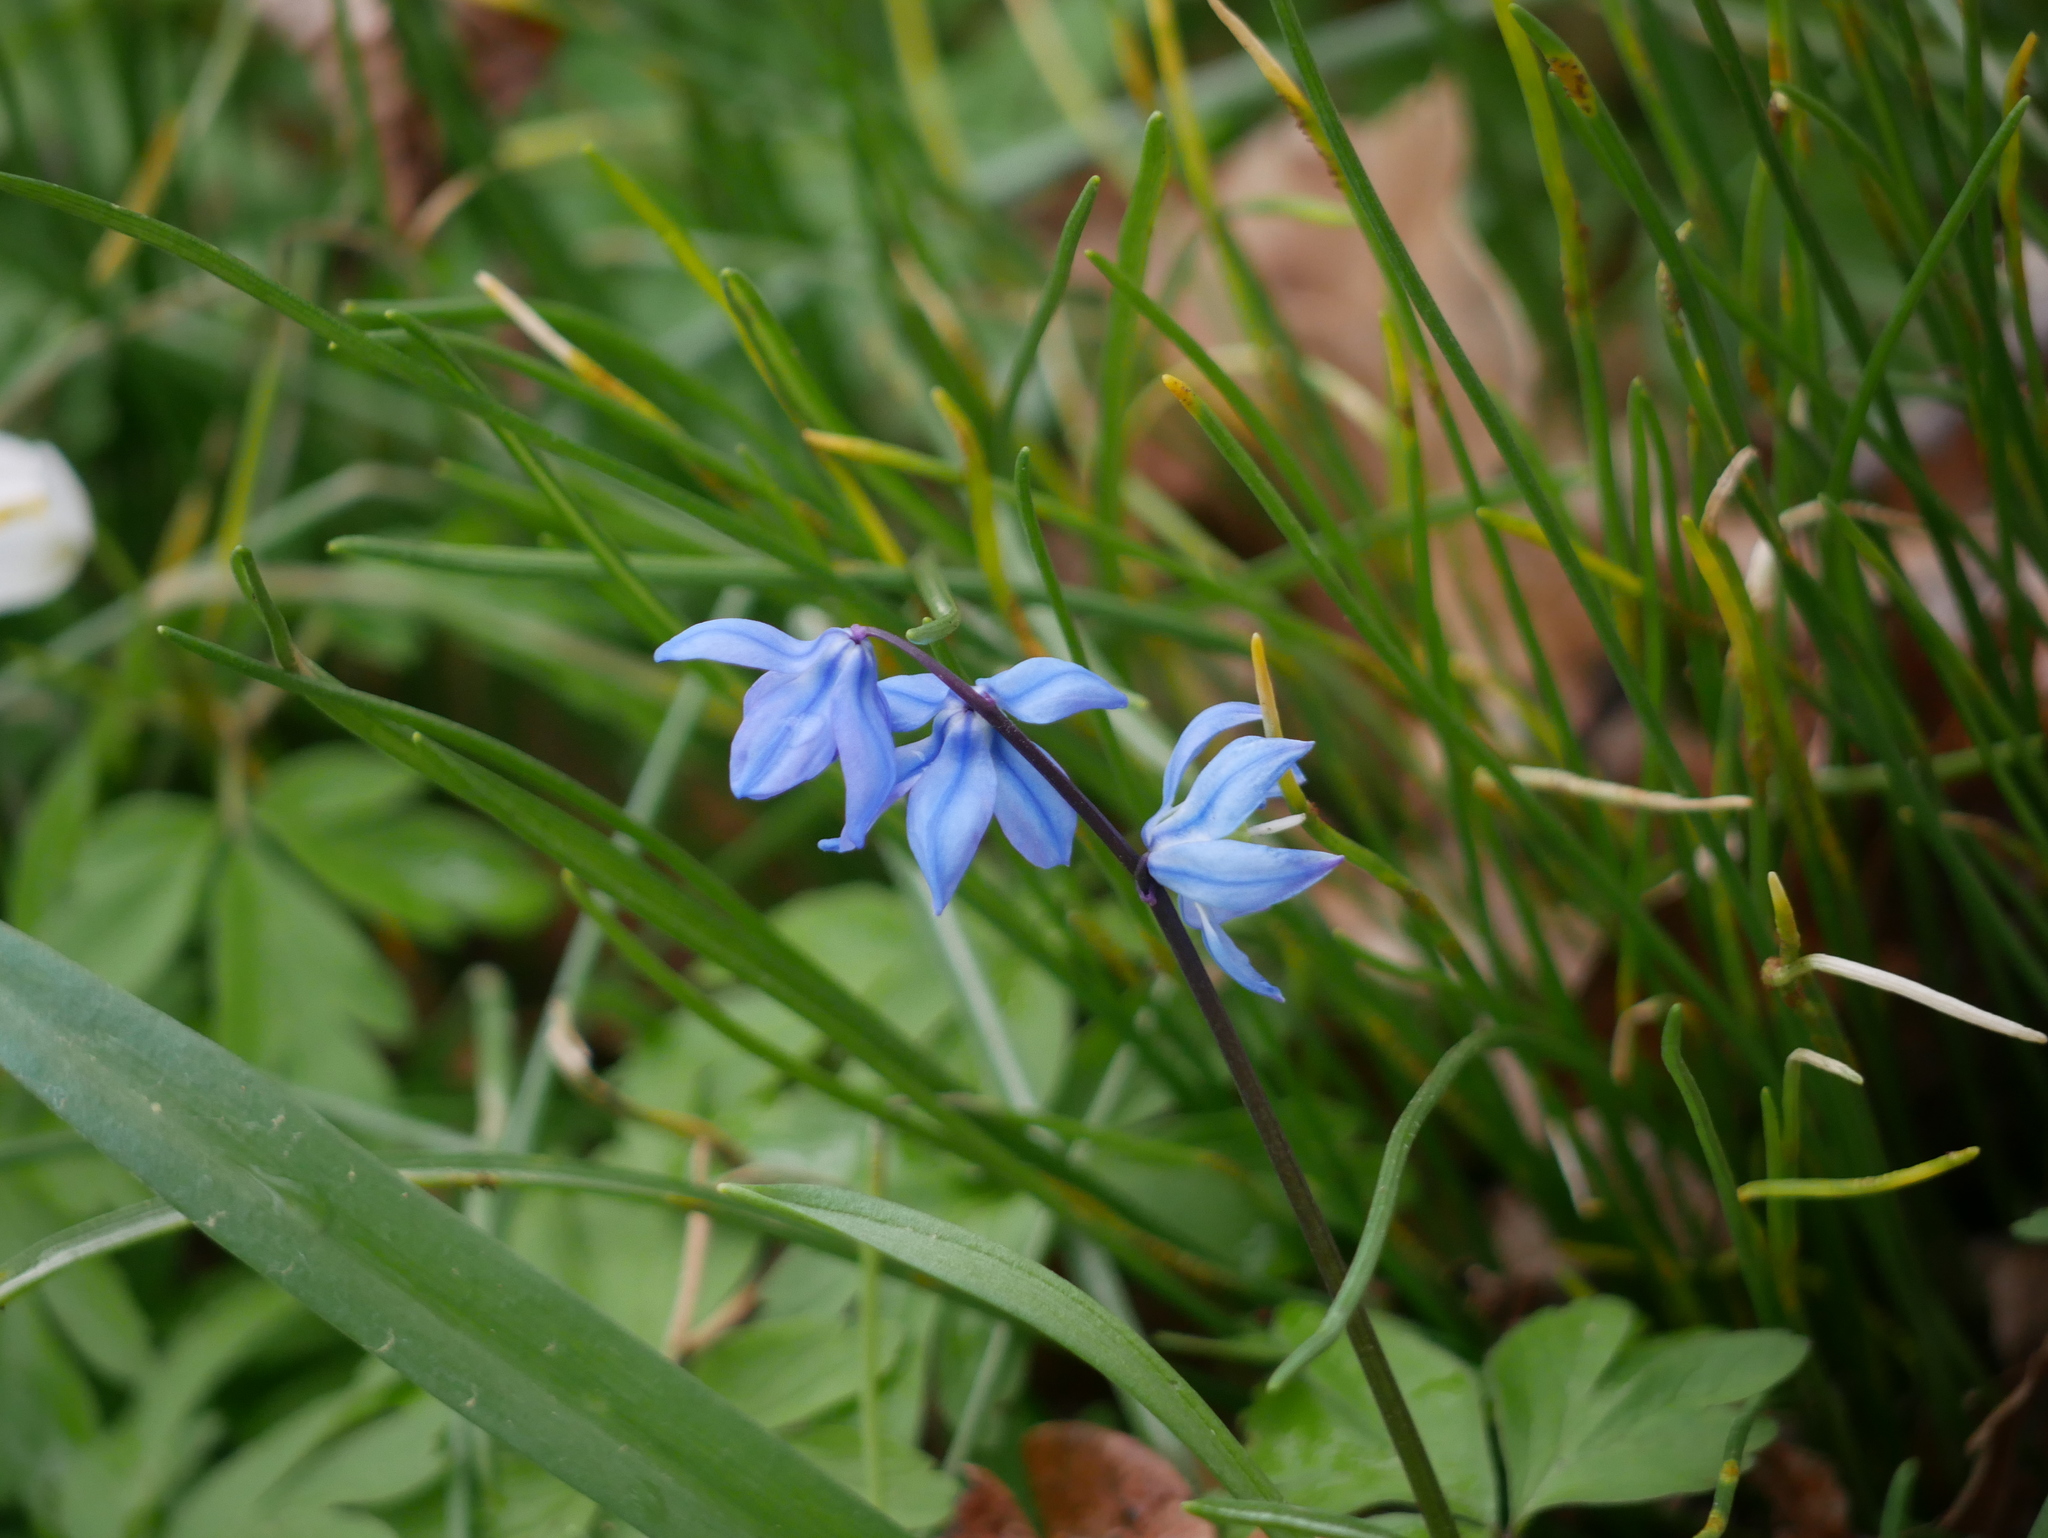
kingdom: Plantae
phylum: Tracheophyta
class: Liliopsida
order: Asparagales
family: Asparagaceae
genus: Scilla
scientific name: Scilla siberica
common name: Siberian squill
